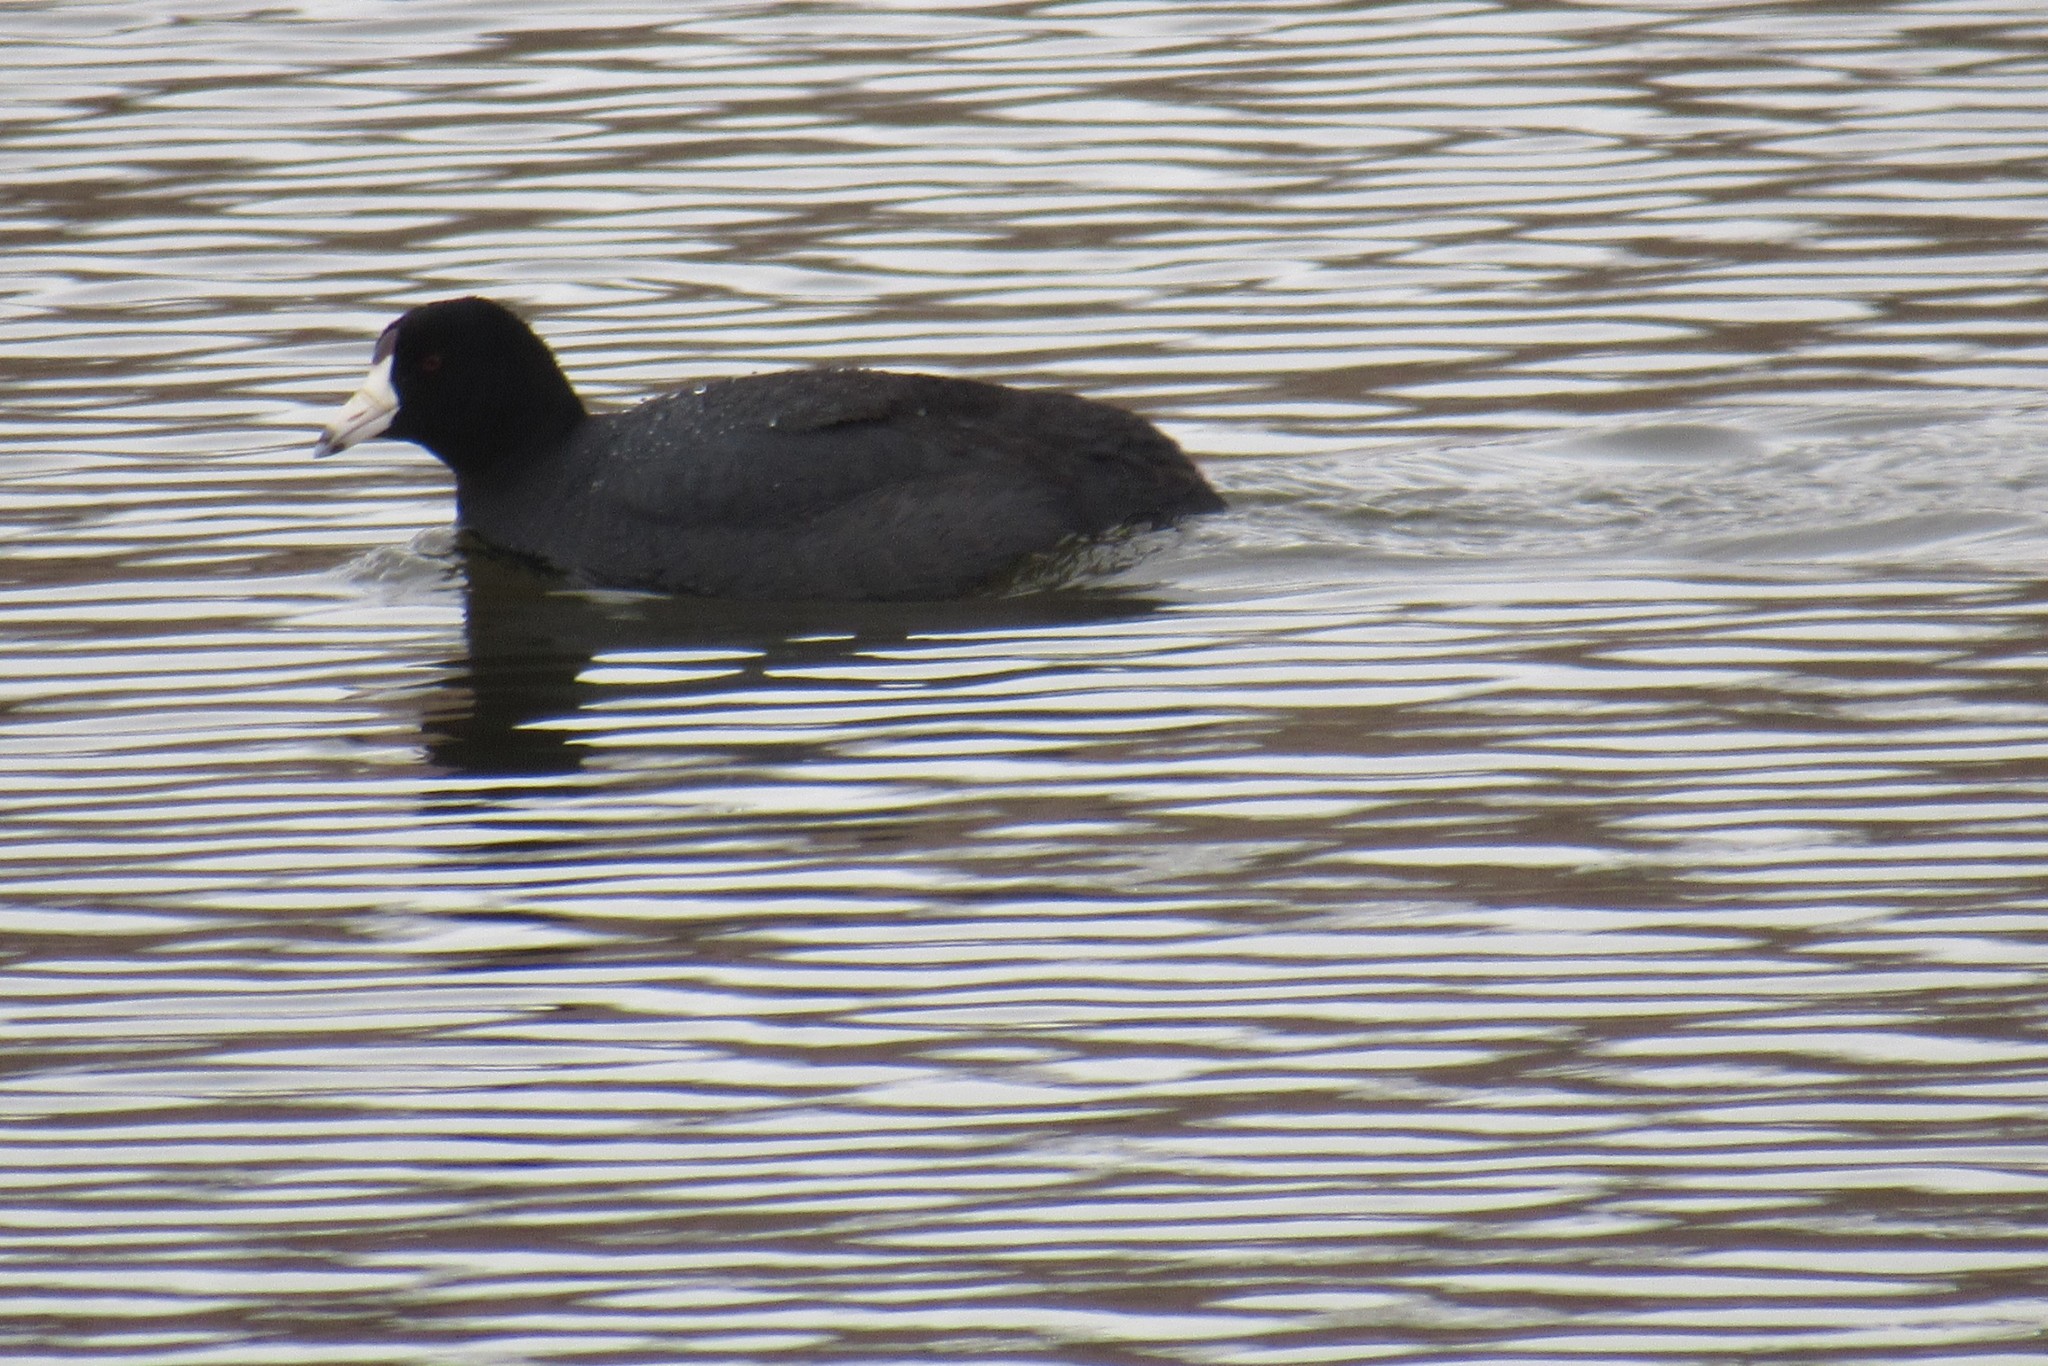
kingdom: Animalia
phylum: Chordata
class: Aves
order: Gruiformes
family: Rallidae
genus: Fulica
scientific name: Fulica americana
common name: American coot
